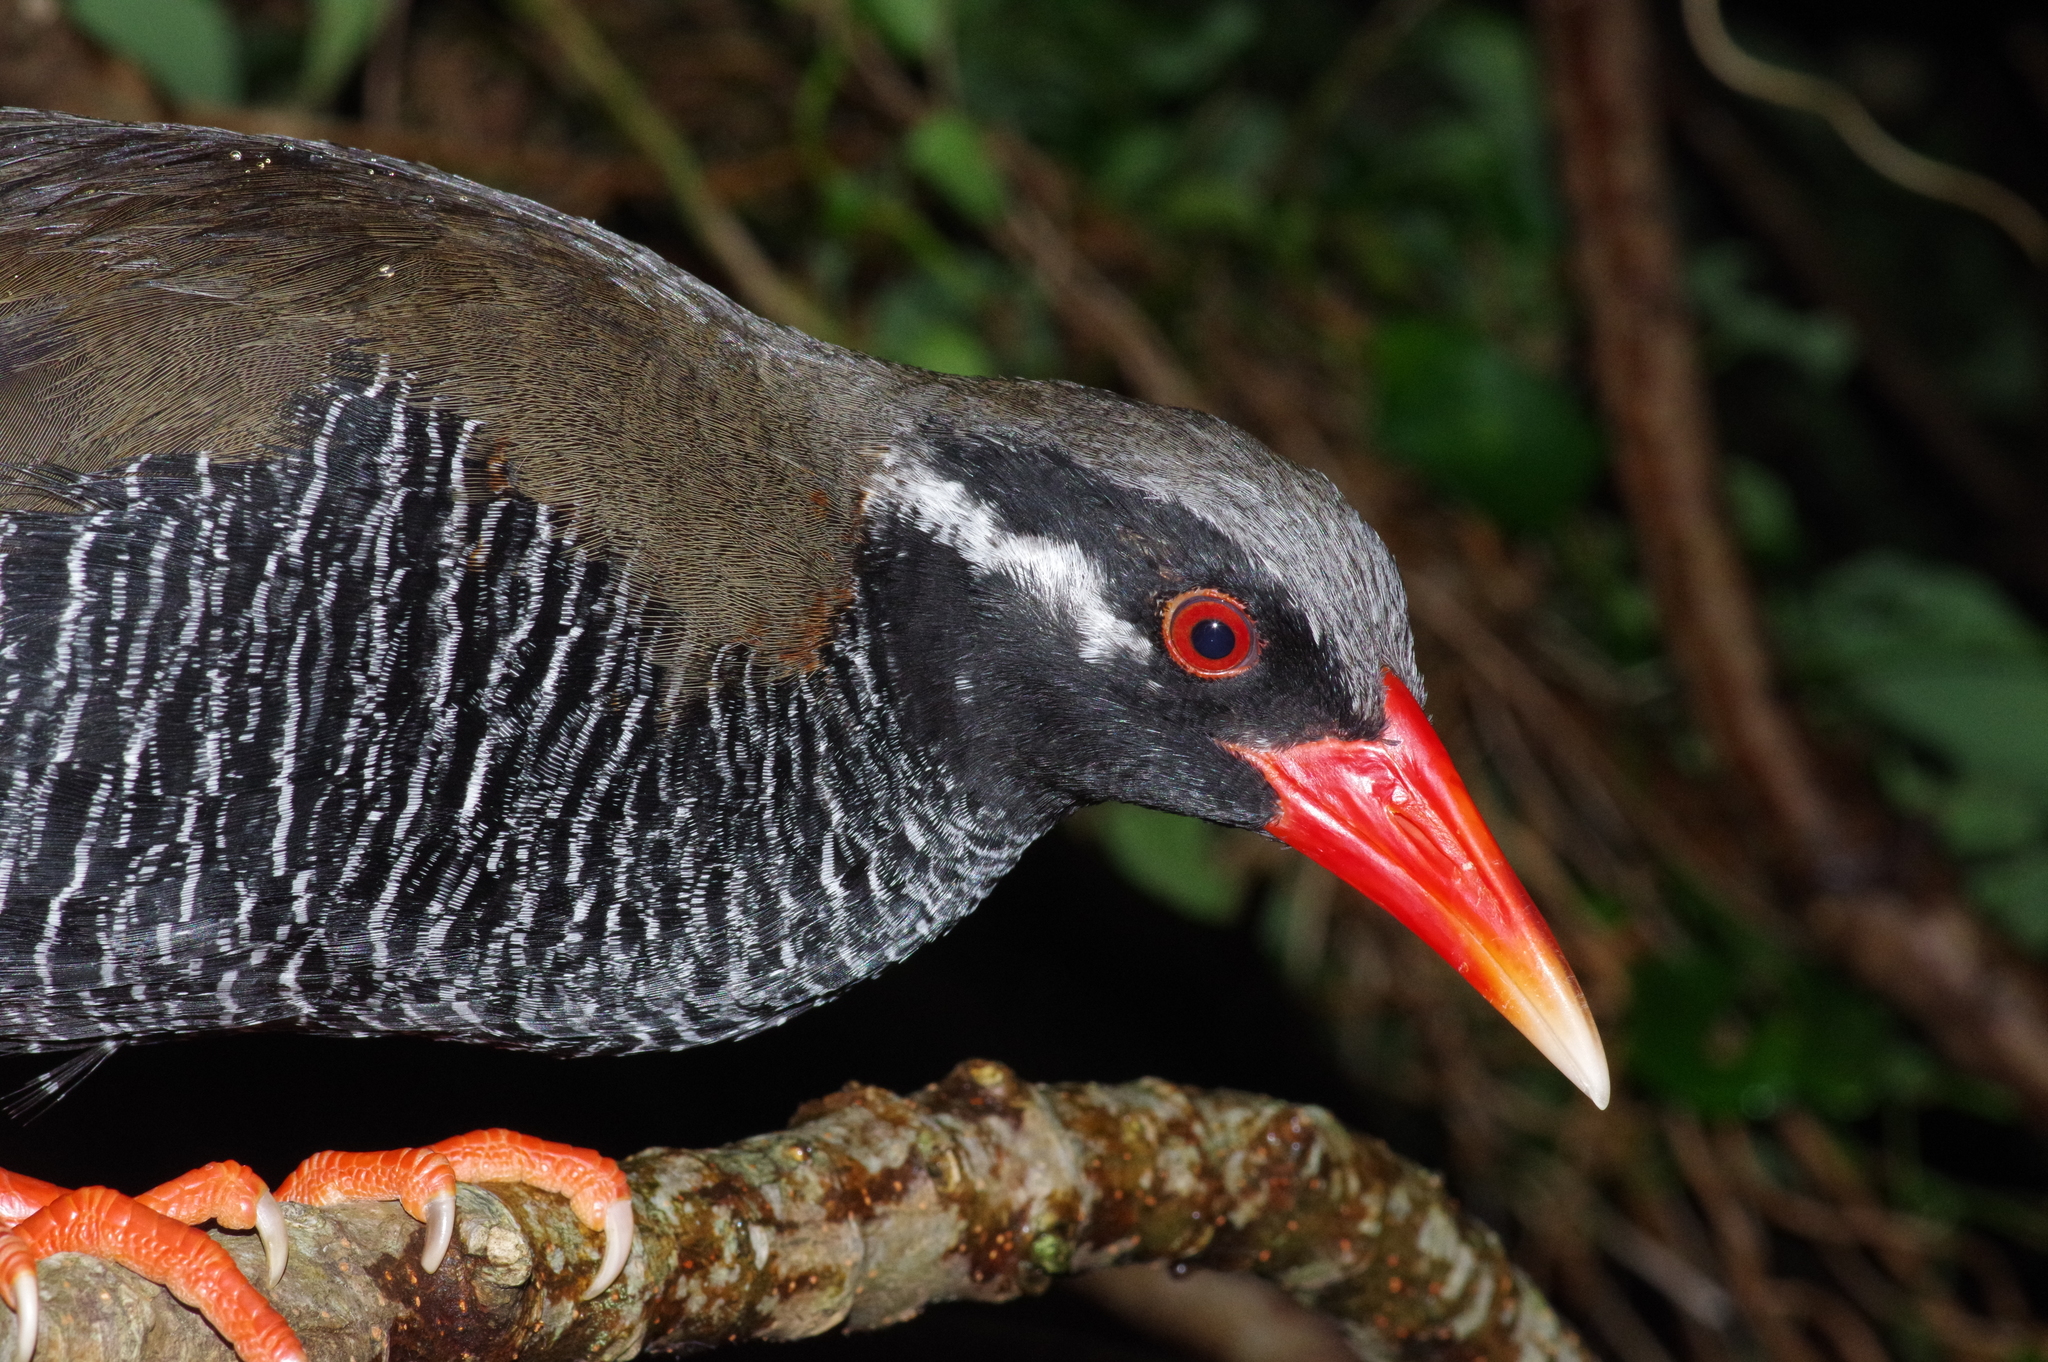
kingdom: Animalia
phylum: Chordata
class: Aves
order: Gruiformes
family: Rallidae
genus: Gallirallus
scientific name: Gallirallus okinawae
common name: Okinawa rail
